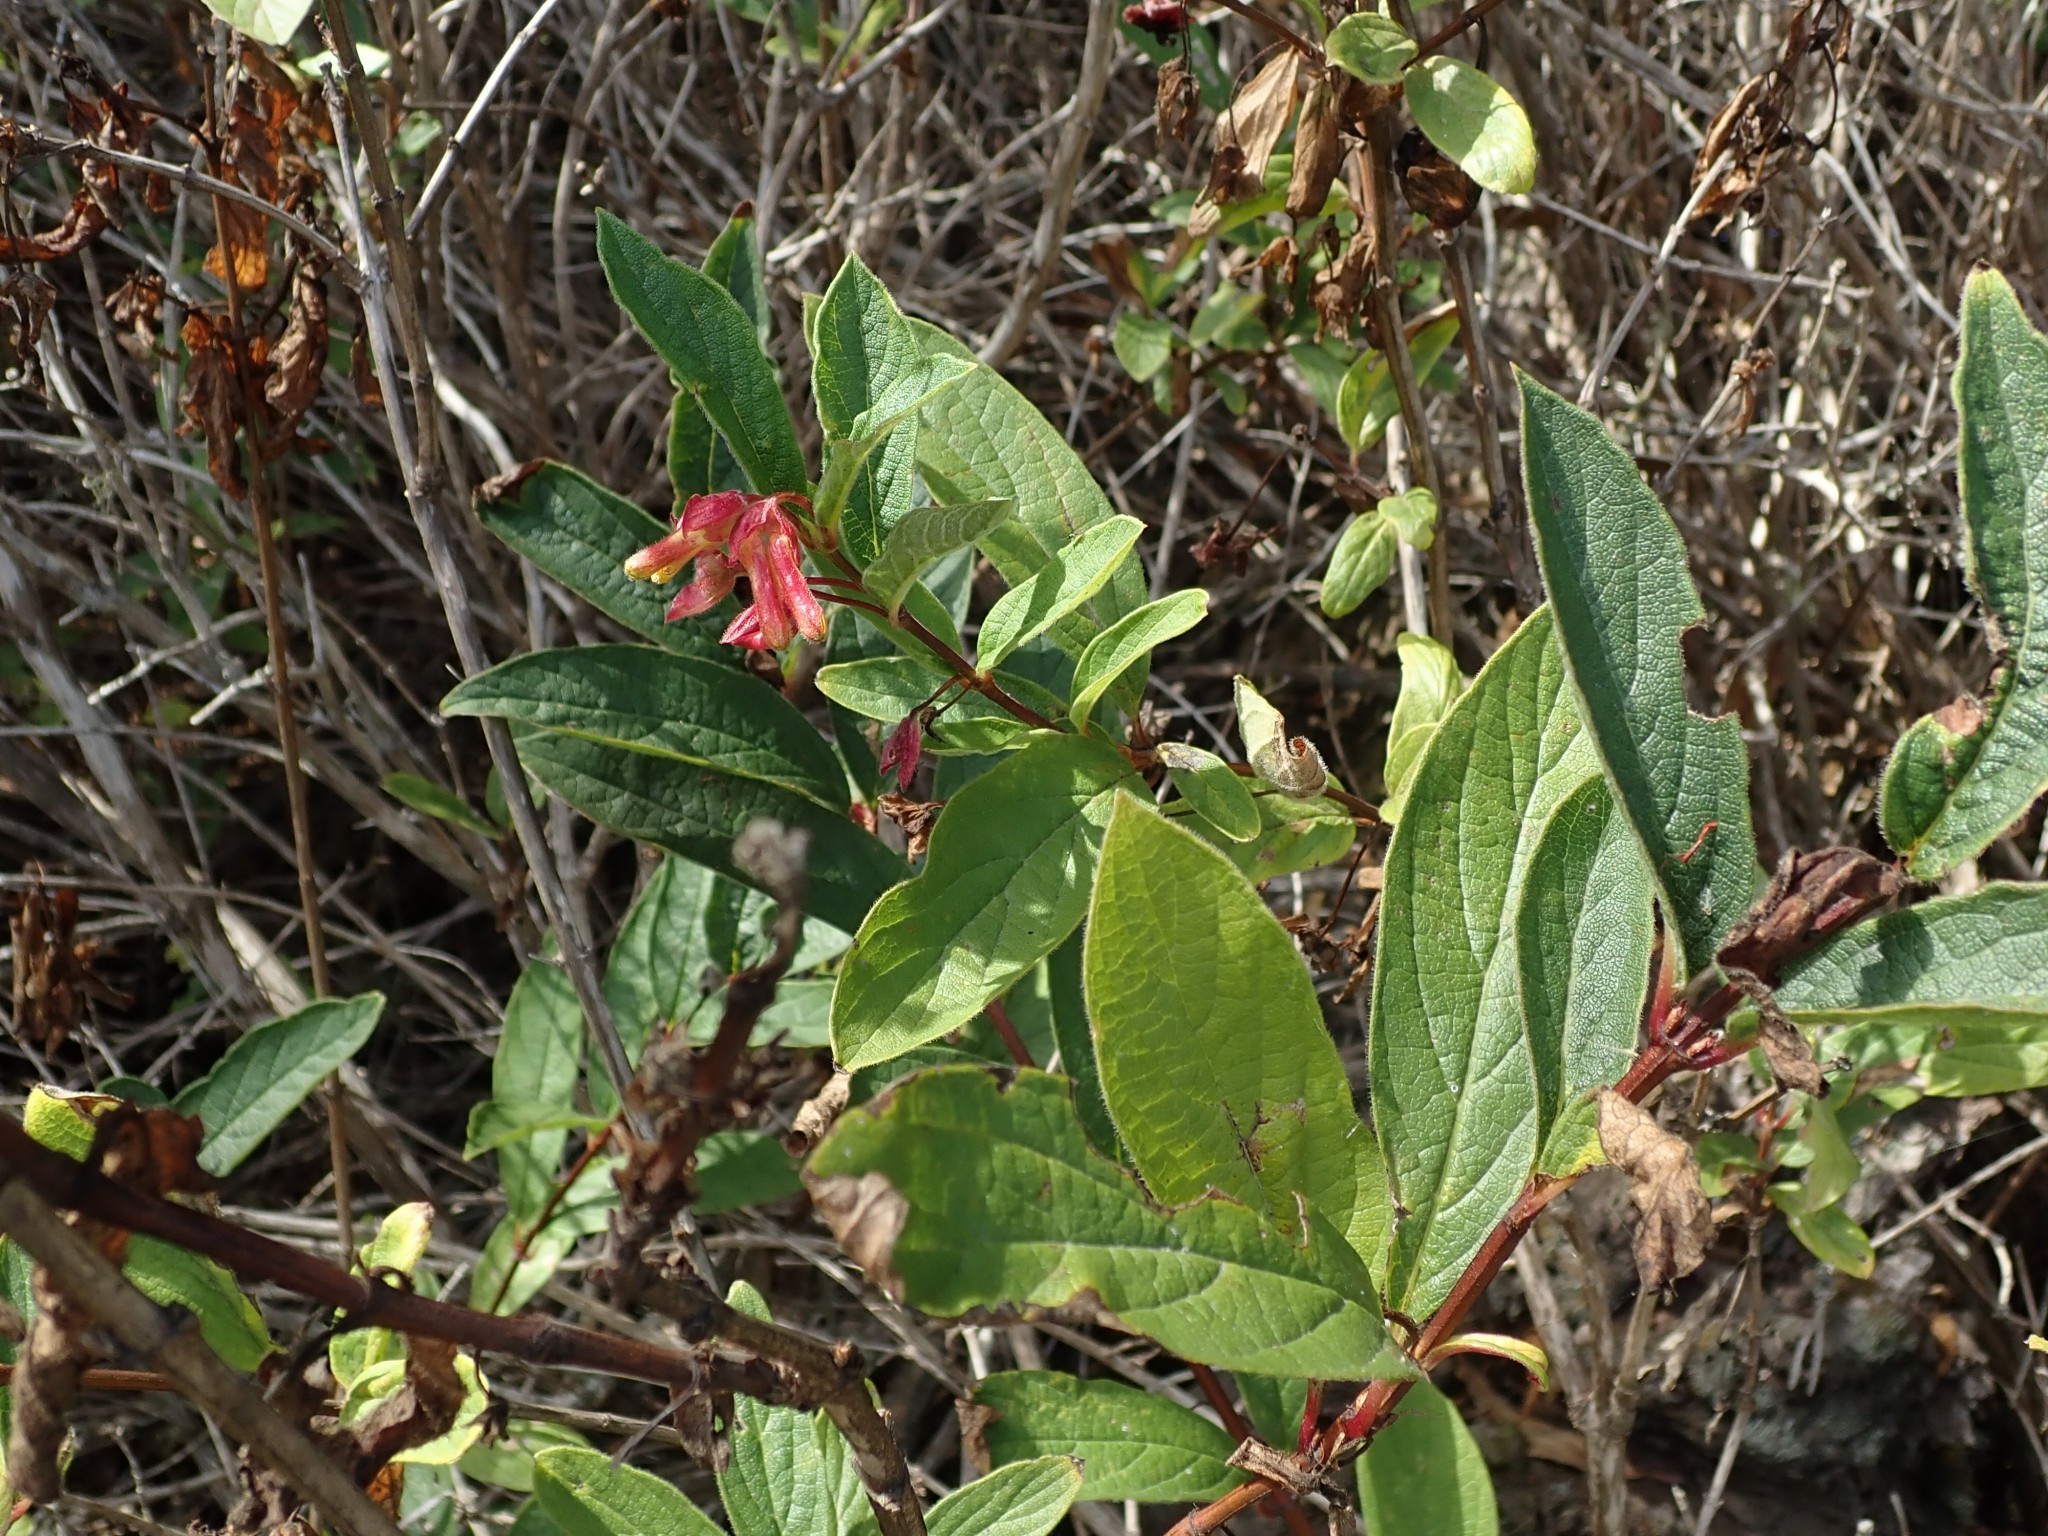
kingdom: Plantae
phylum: Tracheophyta
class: Magnoliopsida
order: Dipsacales
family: Caprifoliaceae
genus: Lonicera
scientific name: Lonicera involucrata
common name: Californian honeysuckle
